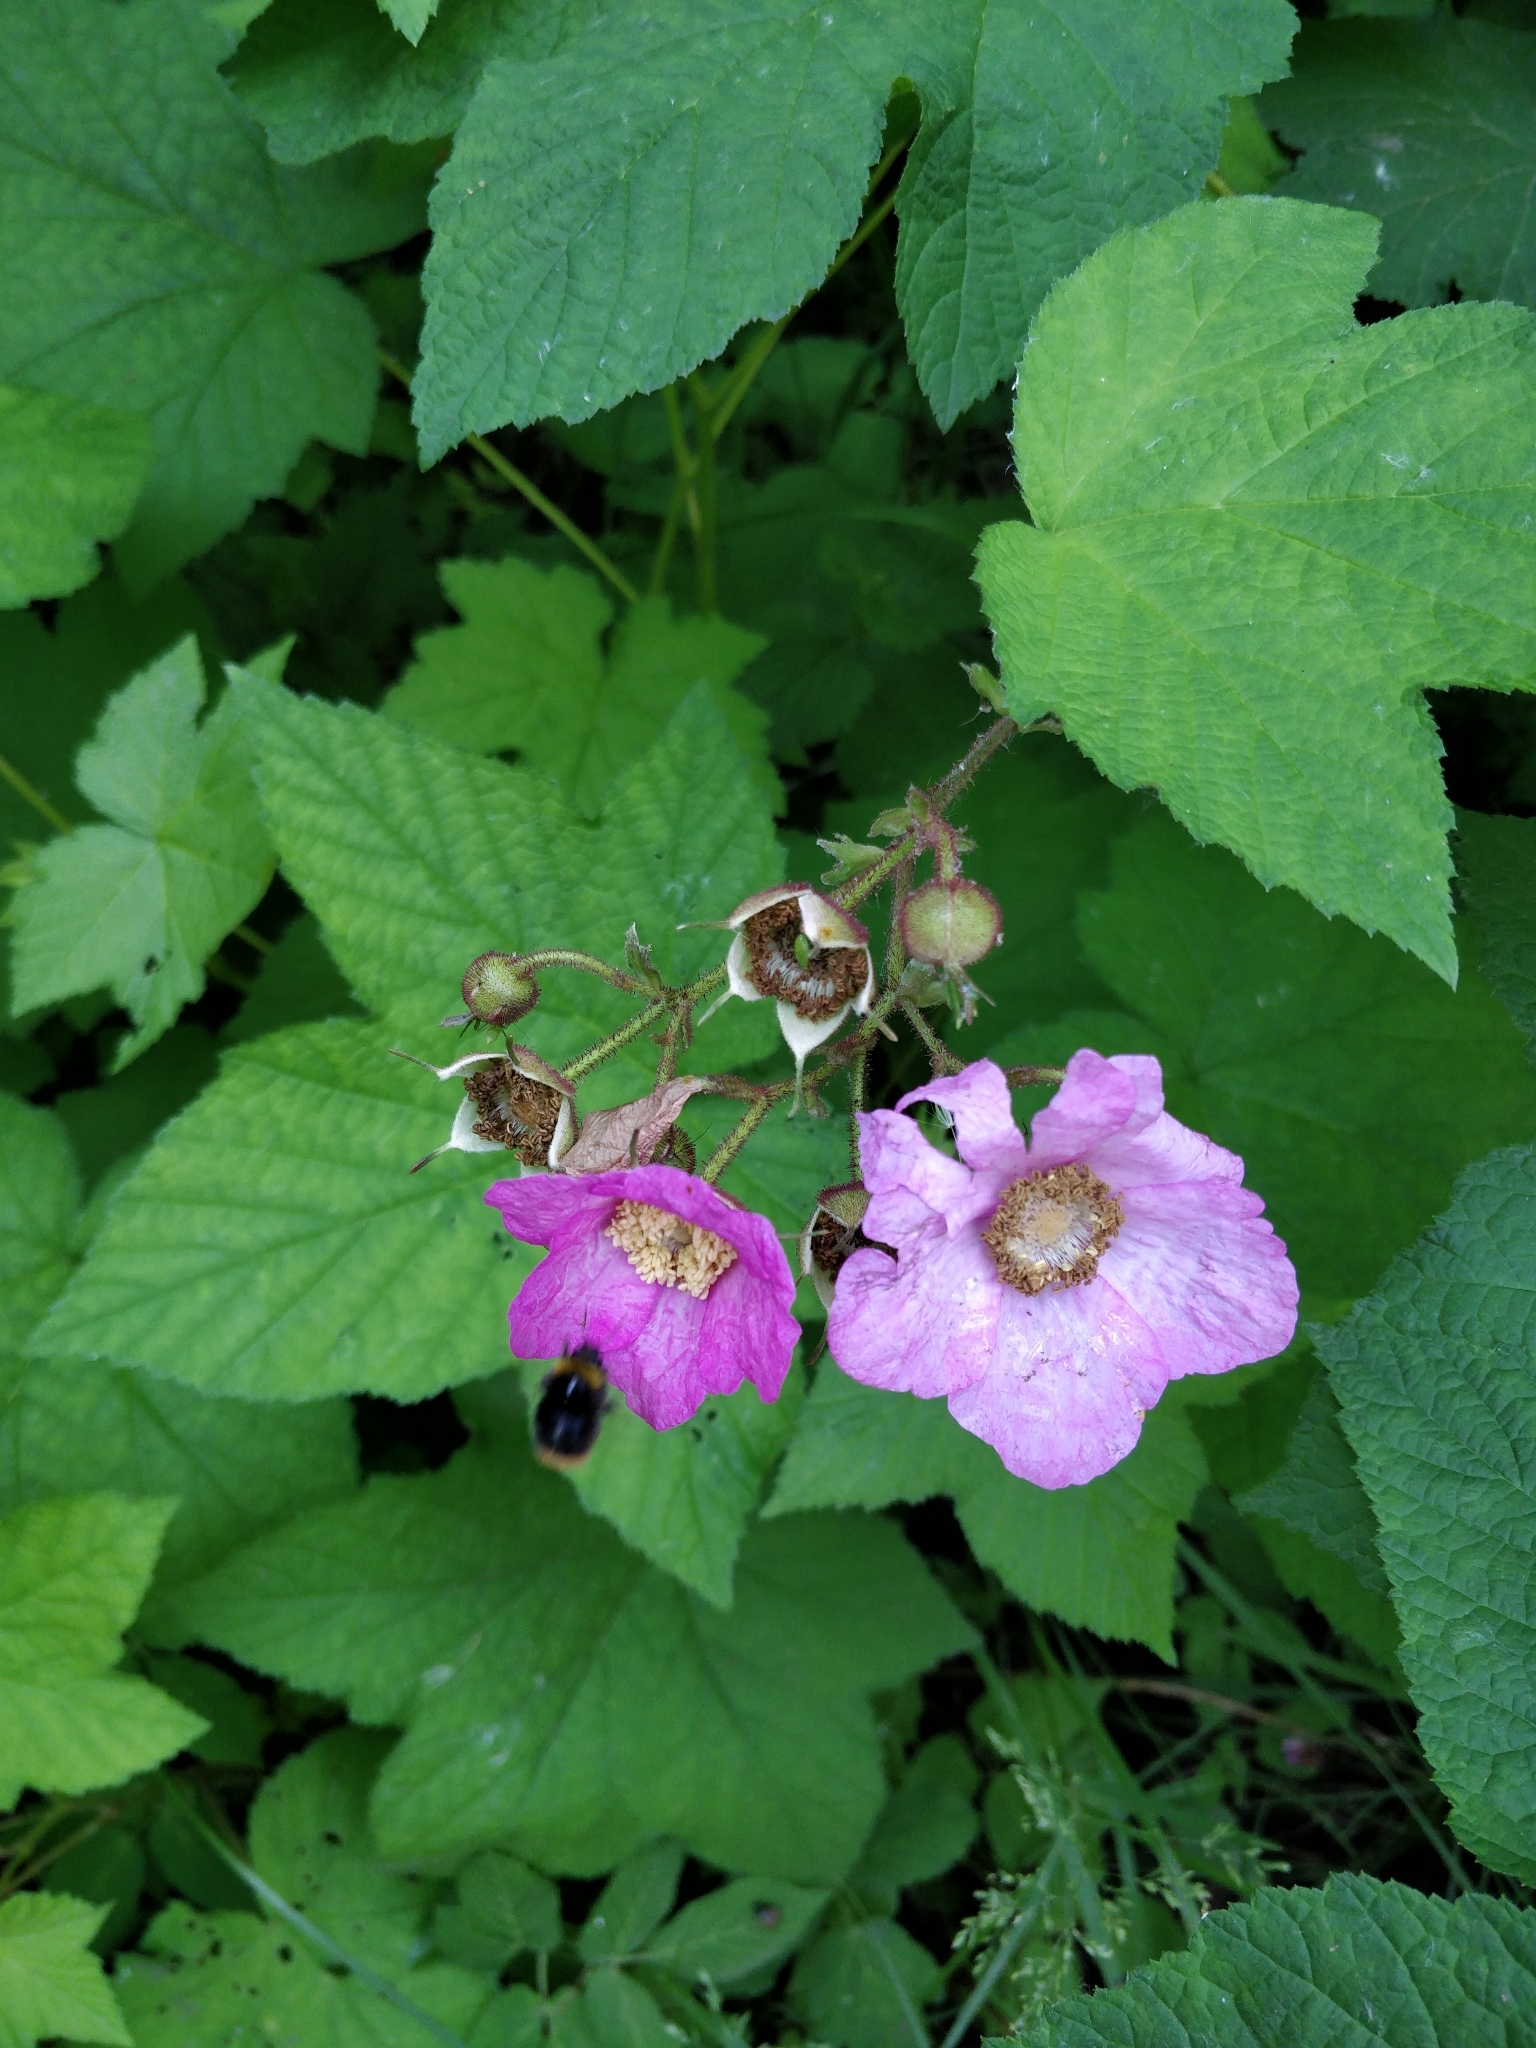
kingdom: Plantae
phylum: Tracheophyta
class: Magnoliopsida
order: Rosales
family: Rosaceae
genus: Rubus
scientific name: Rubus odoratus
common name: Purple-flowered raspberry
